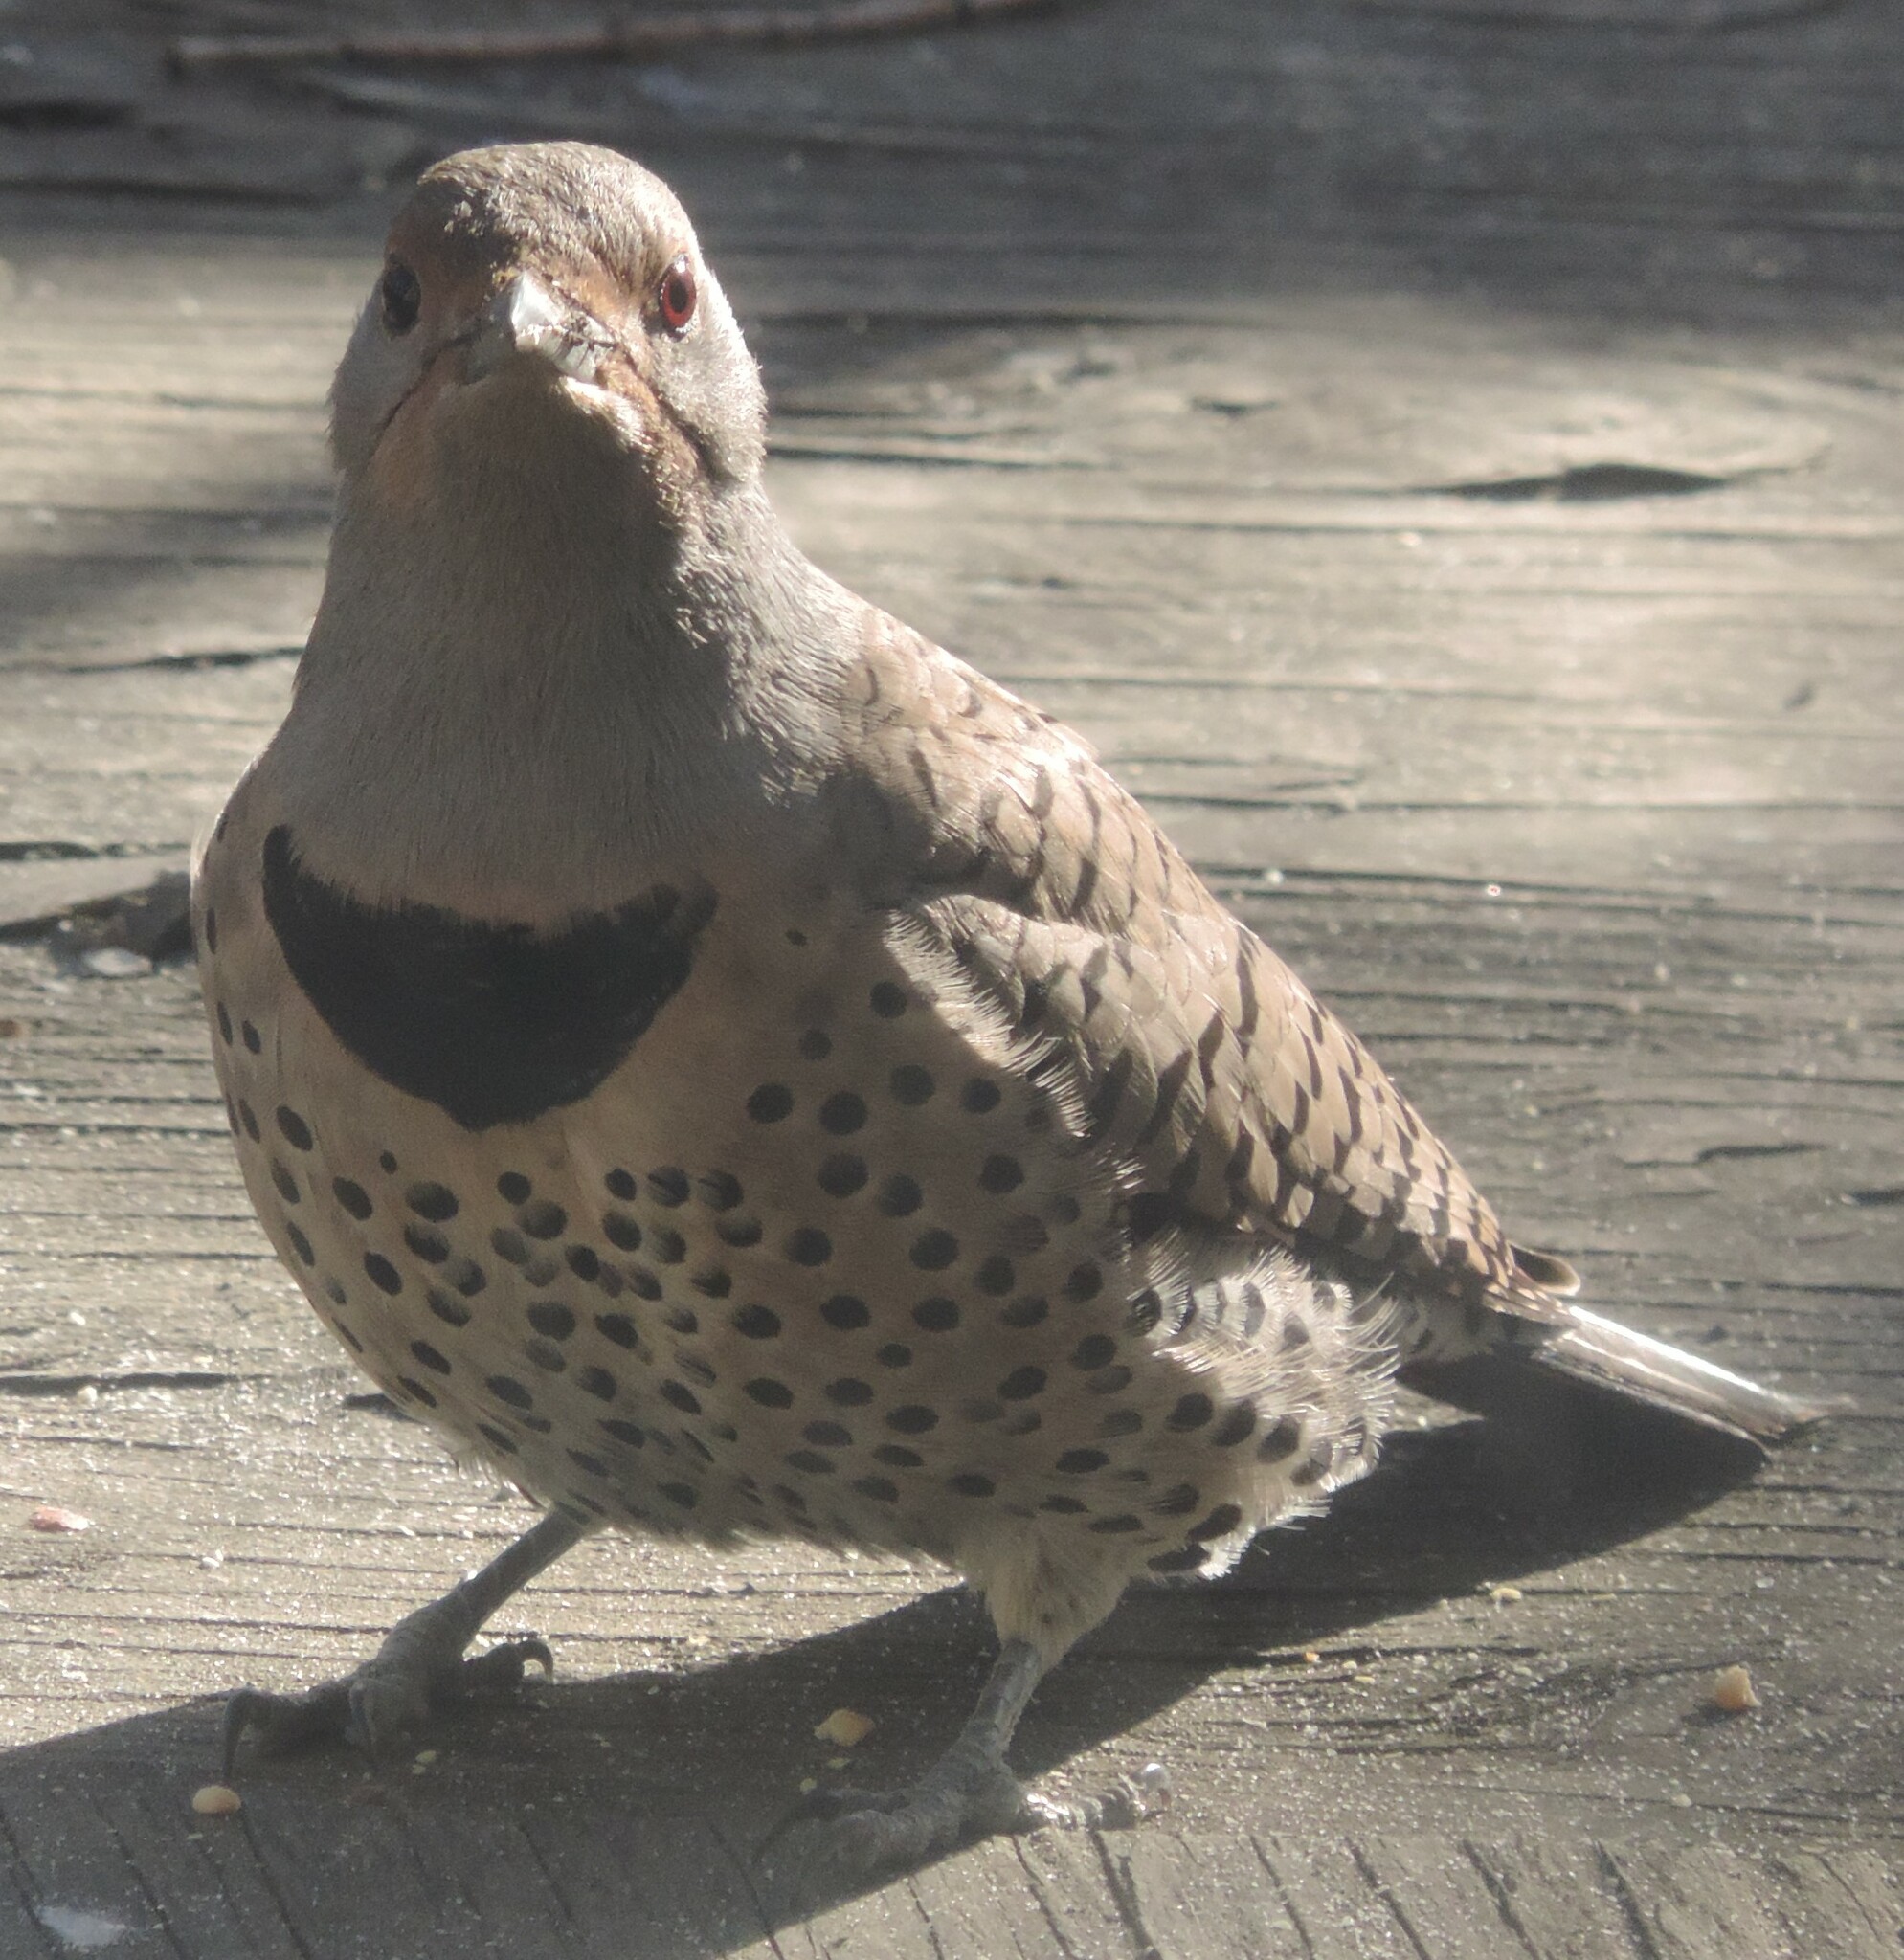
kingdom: Animalia
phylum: Chordata
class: Aves
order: Piciformes
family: Picidae
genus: Colaptes
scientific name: Colaptes auratus
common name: Northern flicker
